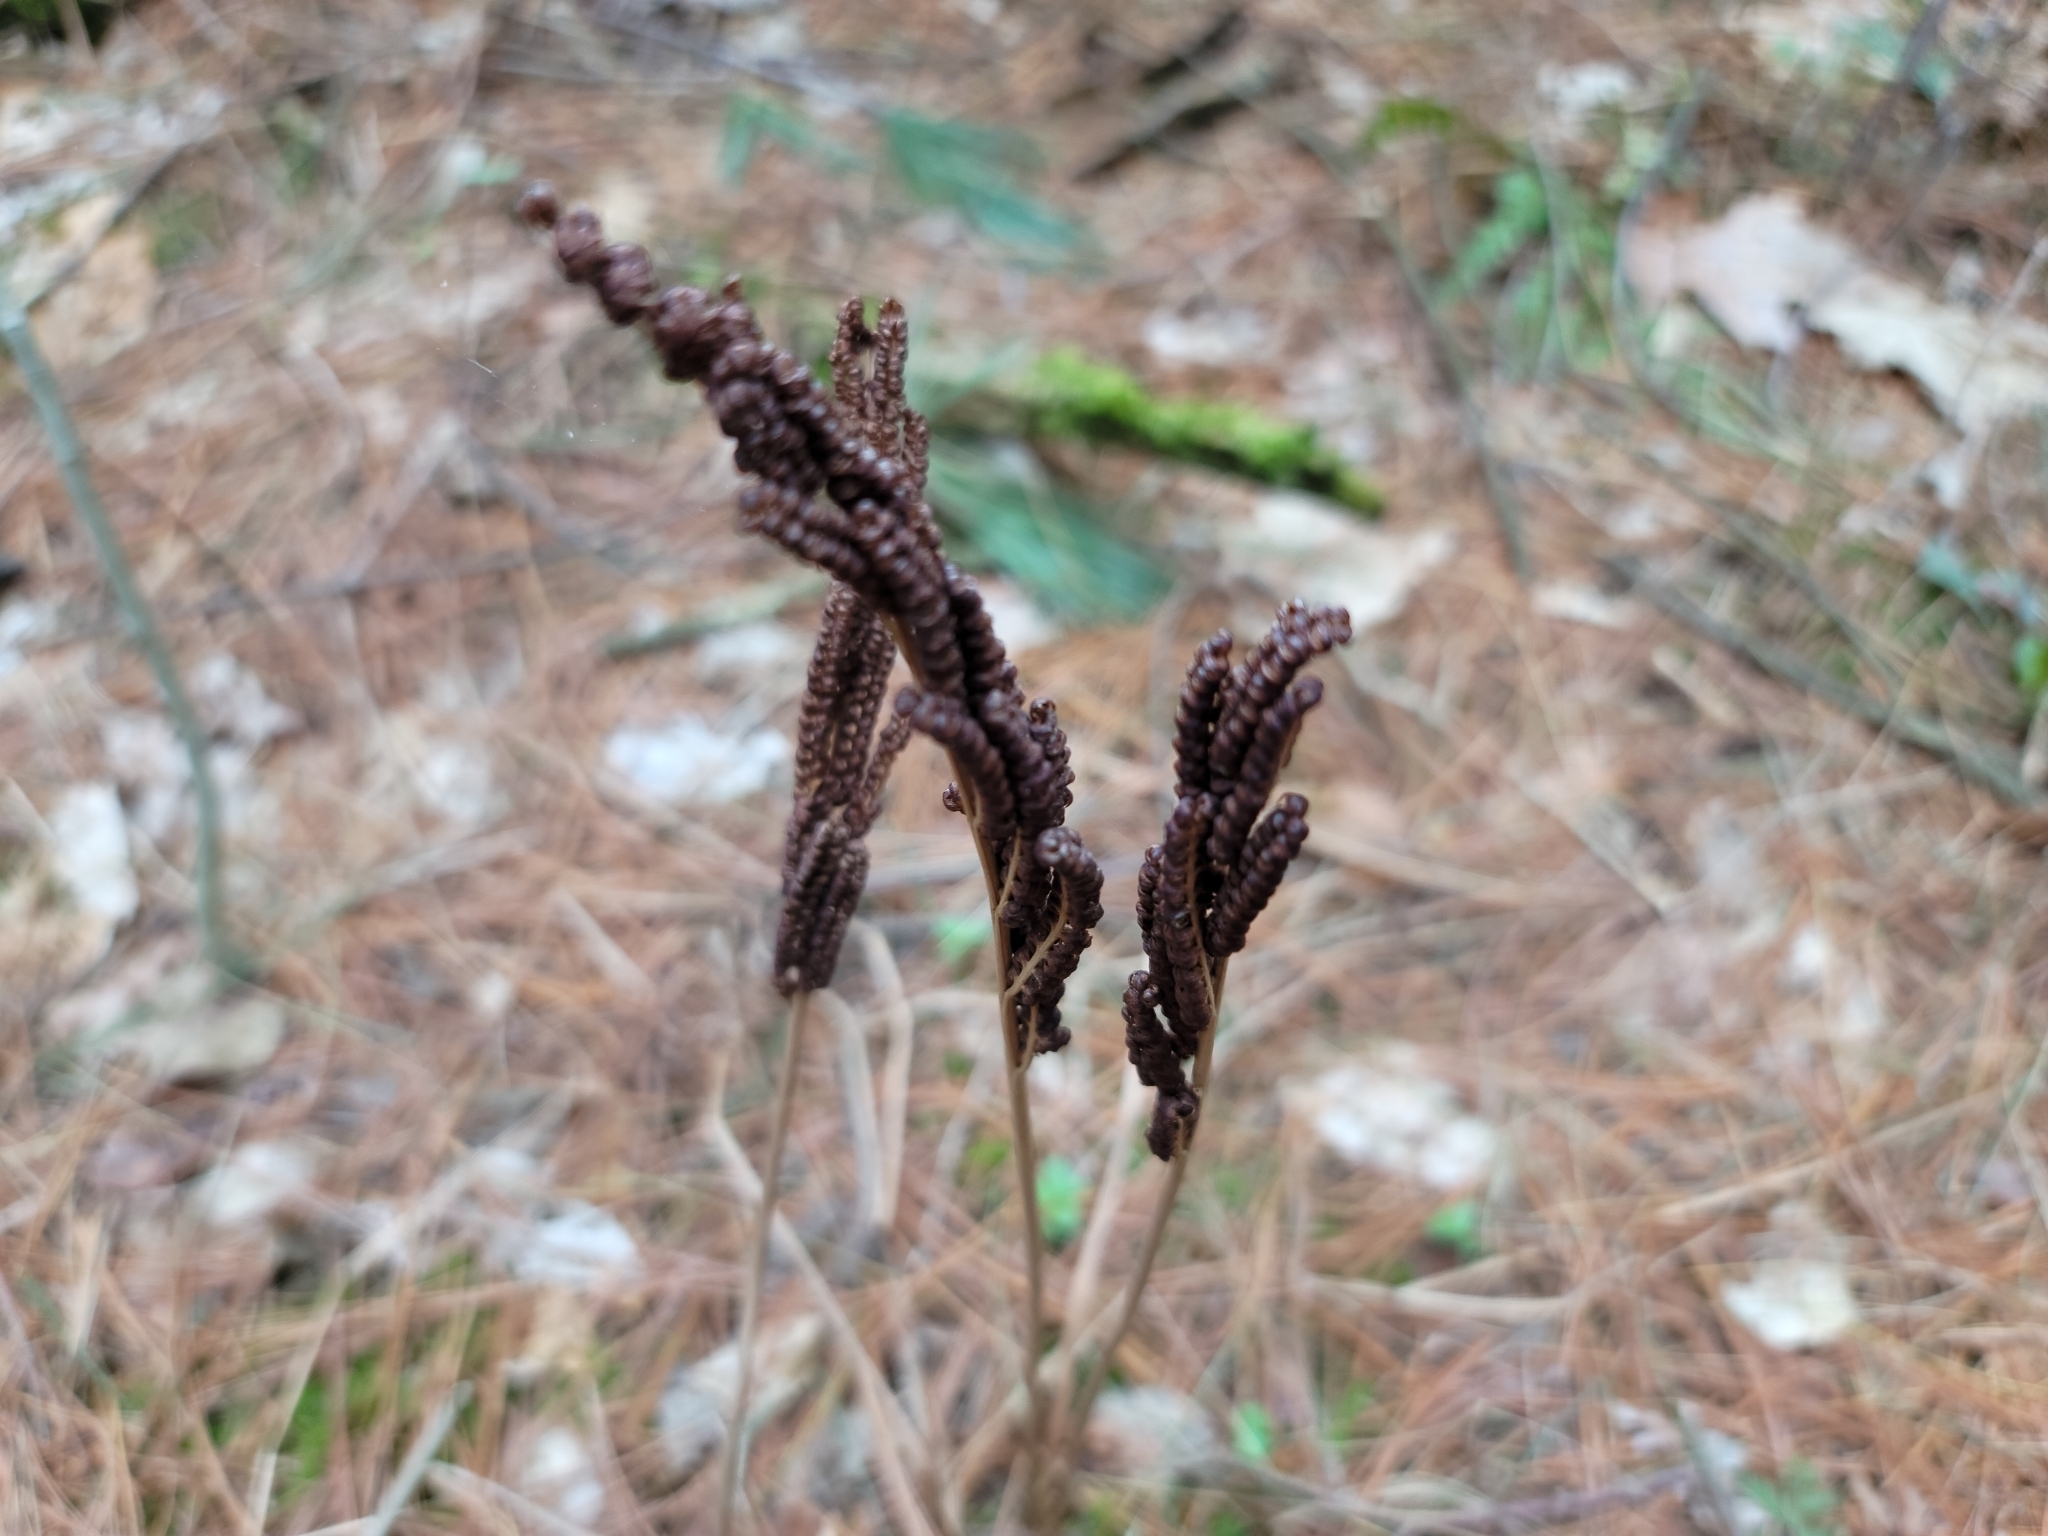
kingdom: Plantae
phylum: Tracheophyta
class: Polypodiopsida
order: Polypodiales
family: Onocleaceae
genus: Onoclea
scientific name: Onoclea sensibilis
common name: Sensitive fern
